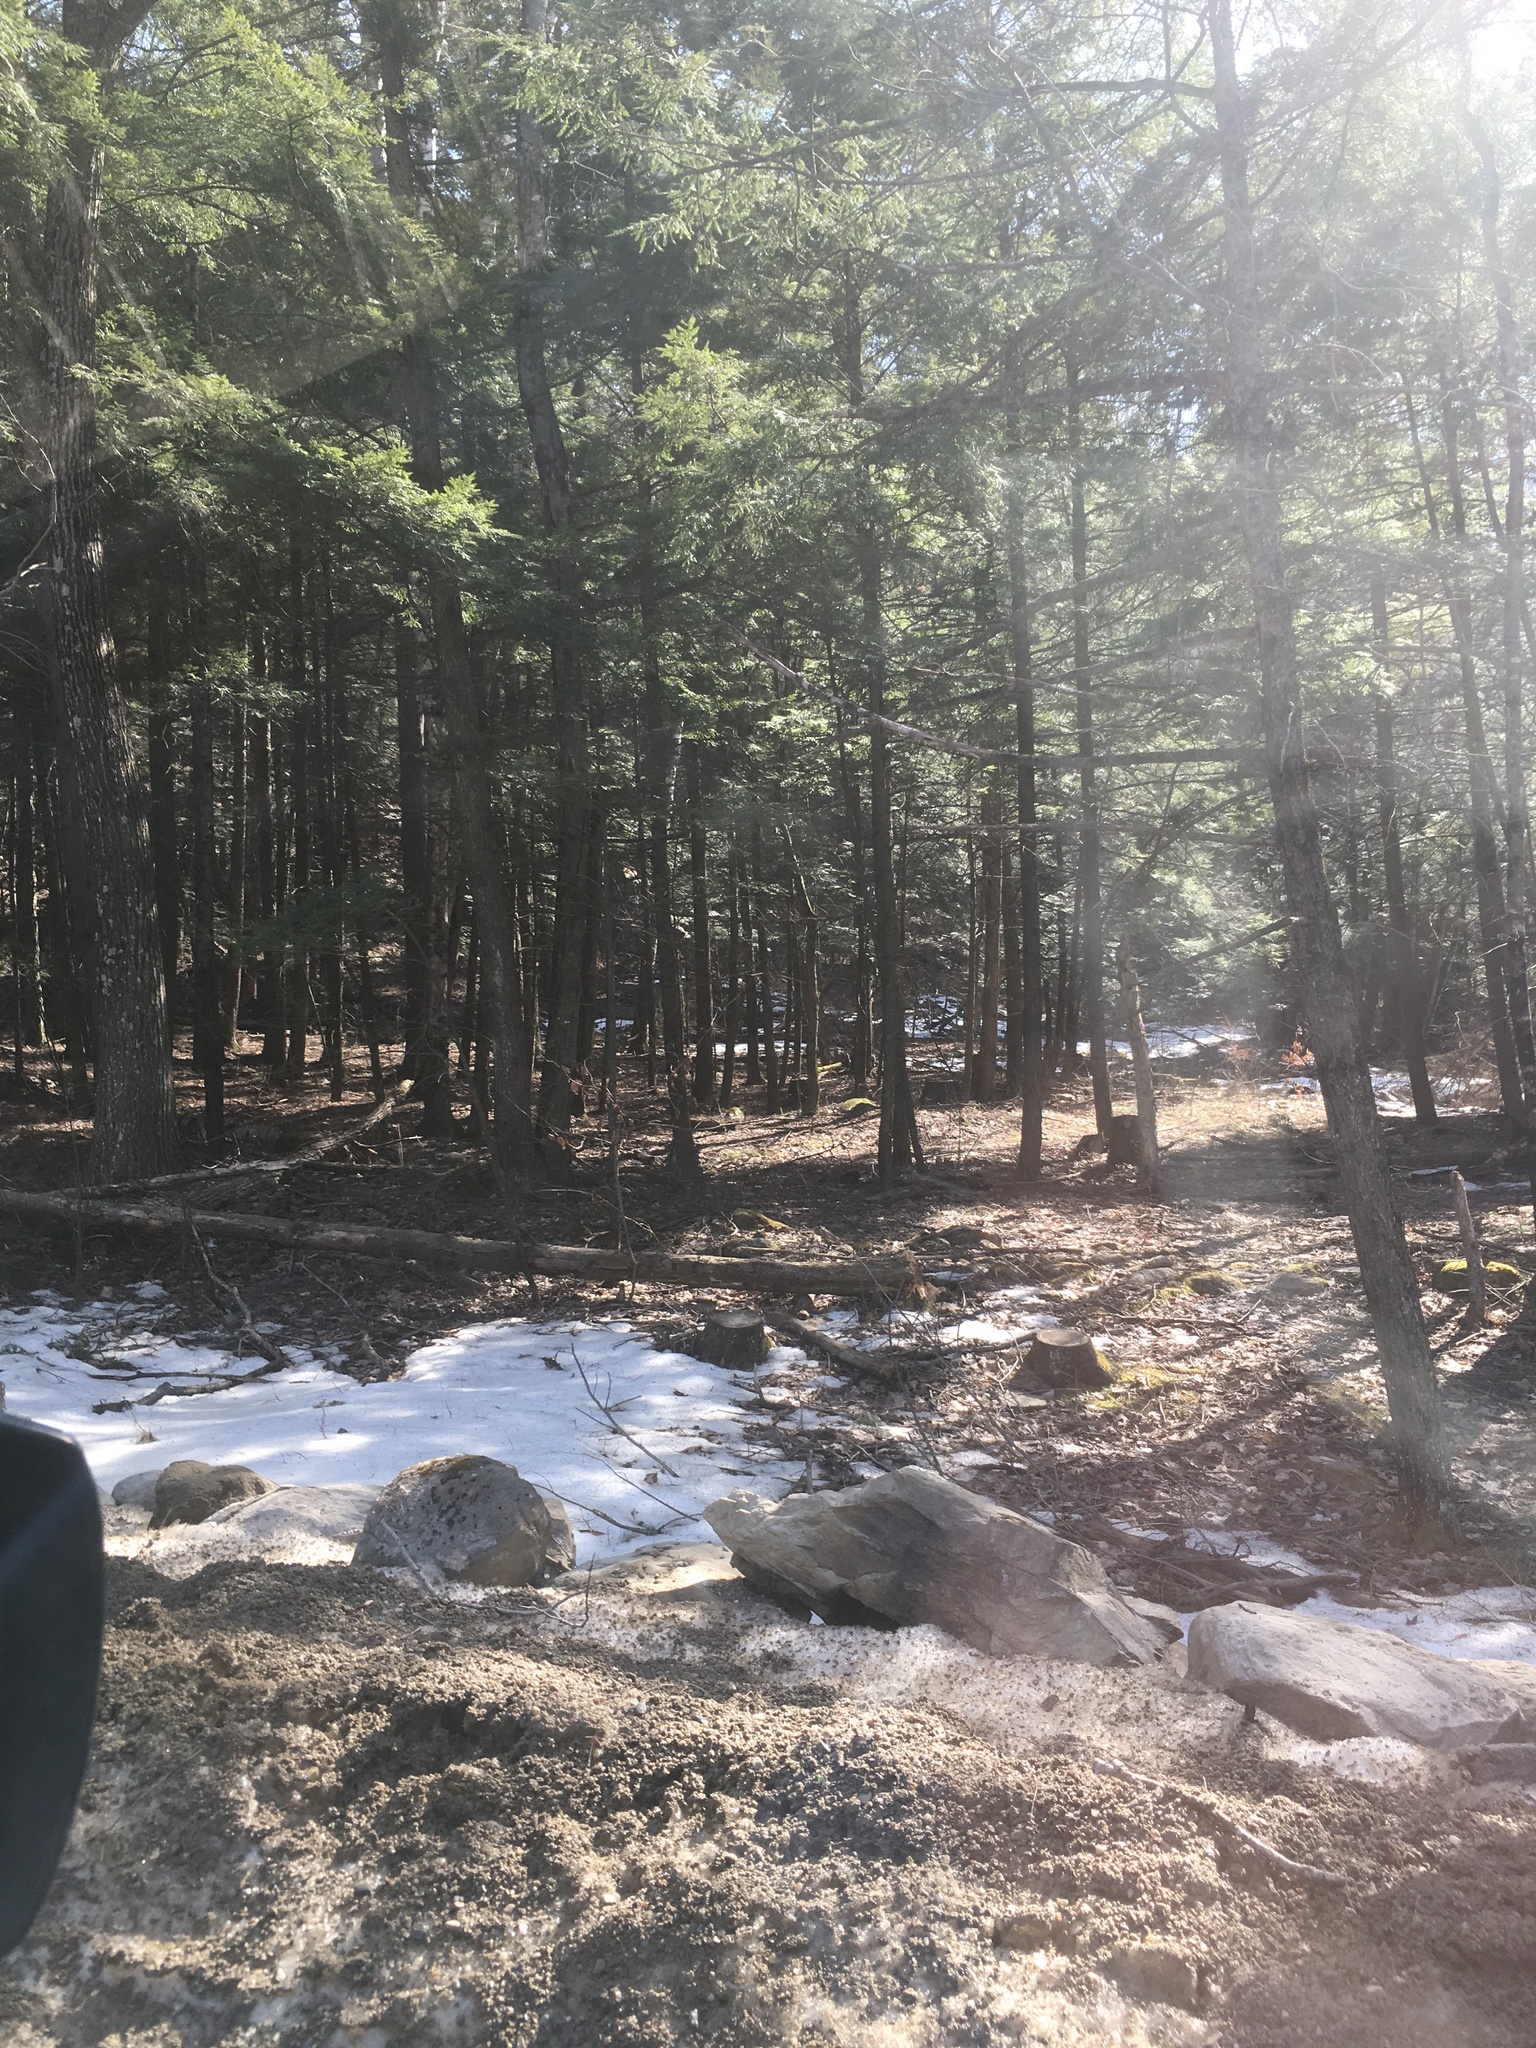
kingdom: Plantae
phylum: Tracheophyta
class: Pinopsida
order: Pinales
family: Pinaceae
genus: Tsuga
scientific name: Tsuga canadensis
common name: Eastern hemlock
